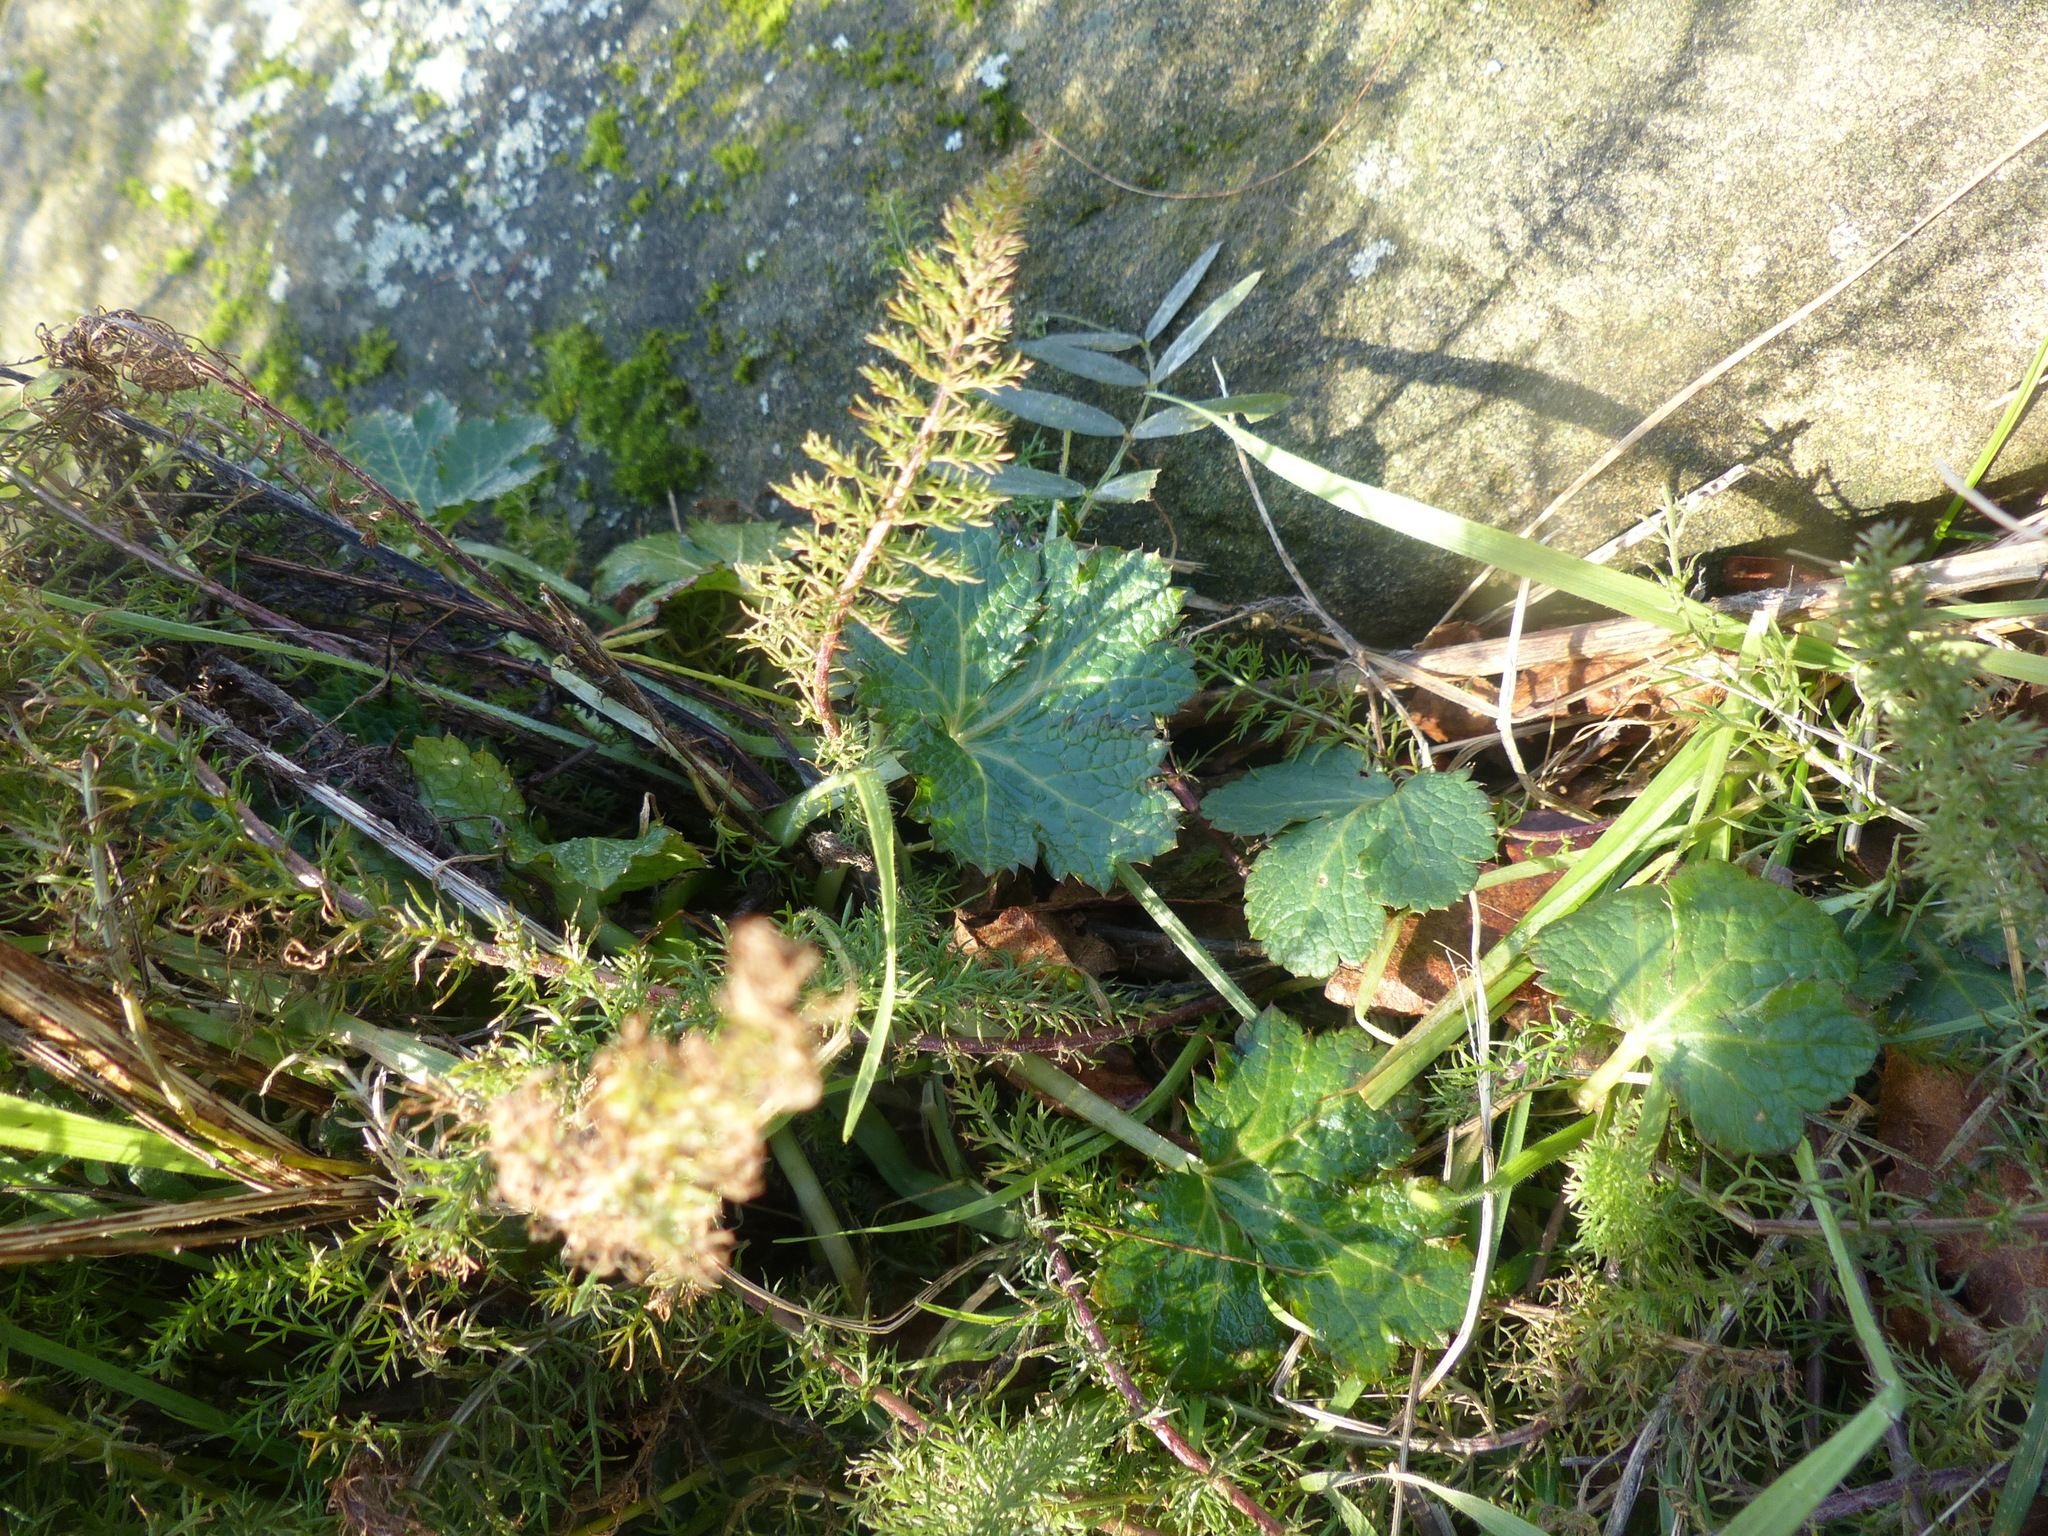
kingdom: Plantae
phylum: Tracheophyta
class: Magnoliopsida
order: Apiales
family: Apiaceae
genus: Sanicula
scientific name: Sanicula crassicaulis
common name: Western snakeroot
